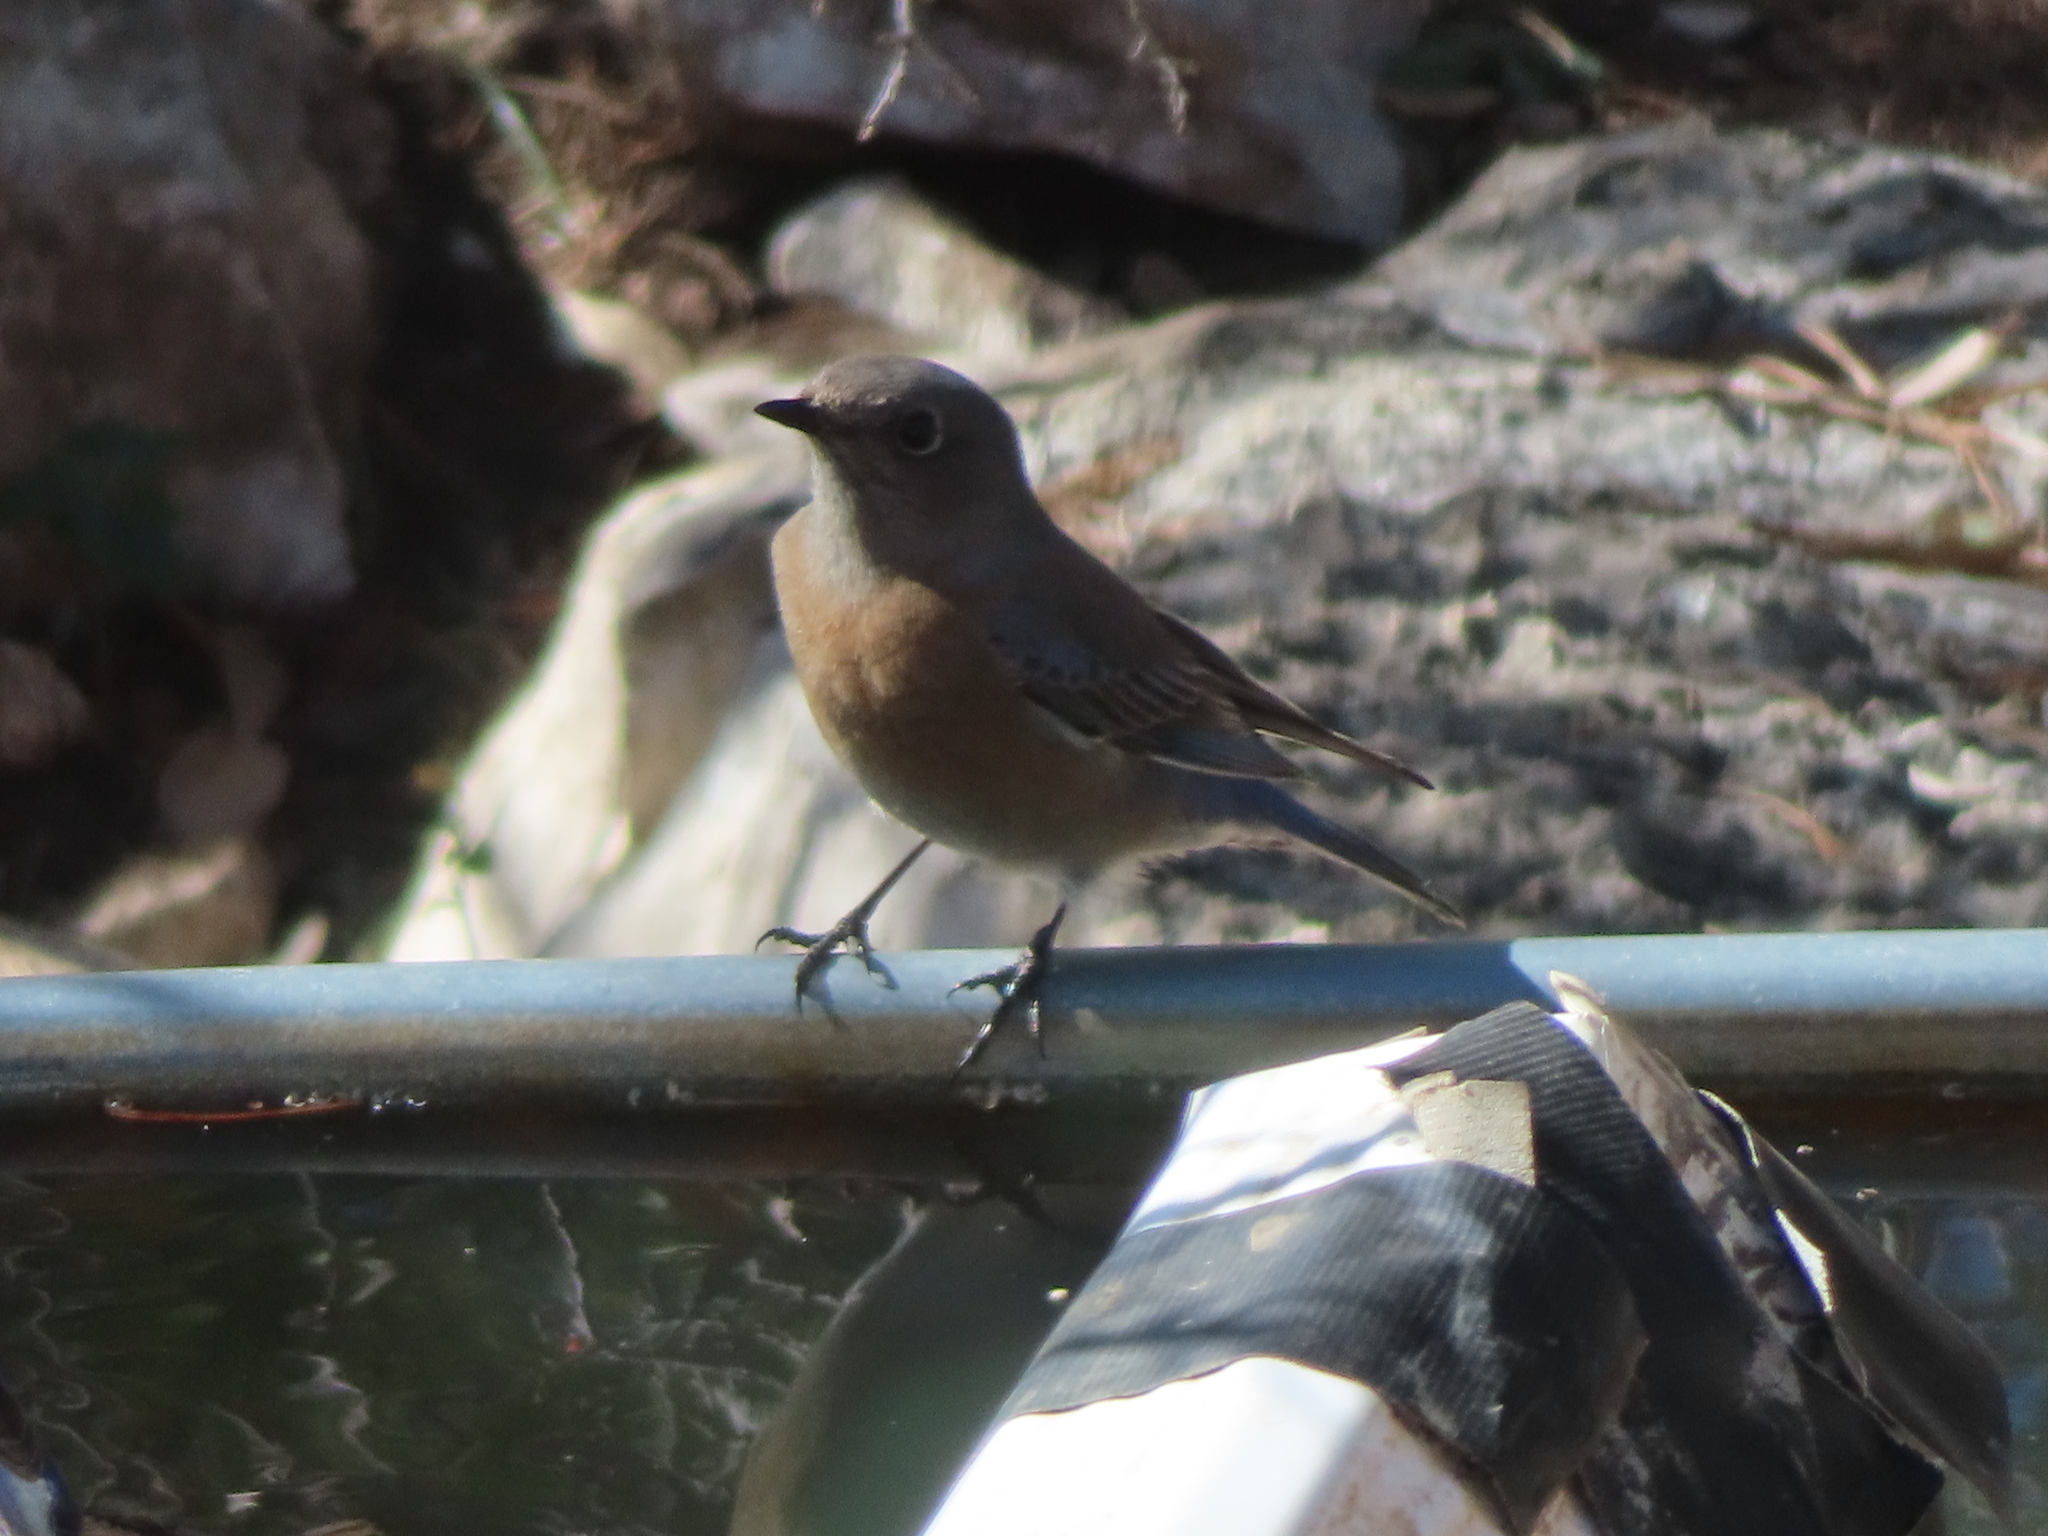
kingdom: Animalia
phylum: Chordata
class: Aves
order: Passeriformes
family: Turdidae
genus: Sialia
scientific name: Sialia mexicana
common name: Western bluebird
